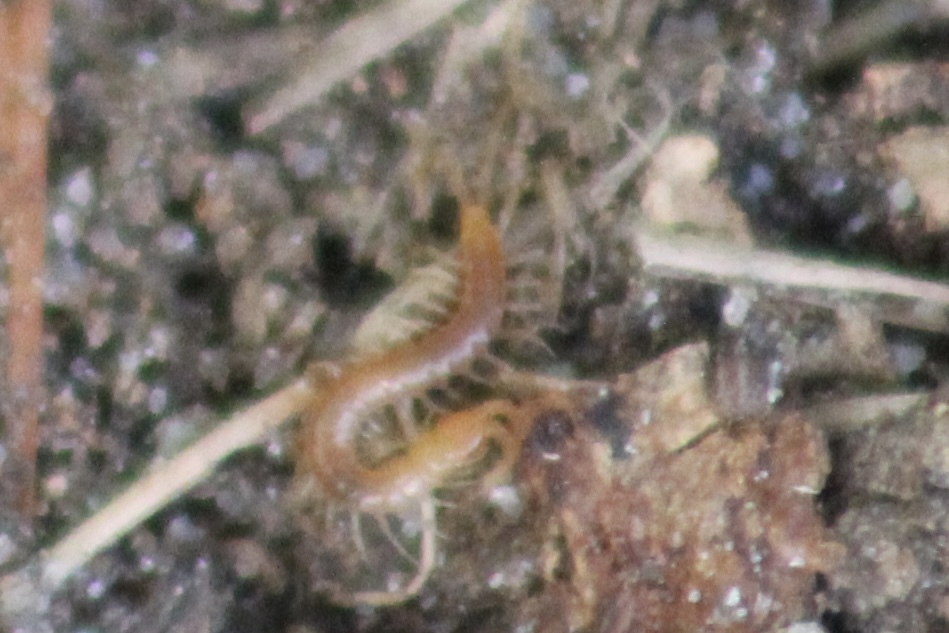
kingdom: Animalia
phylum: Arthropoda
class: Chilopoda
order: Scolopendromorpha
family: Scolopocryptopidae
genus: Scolopocryptops
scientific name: Scolopocryptops sexspinosus
